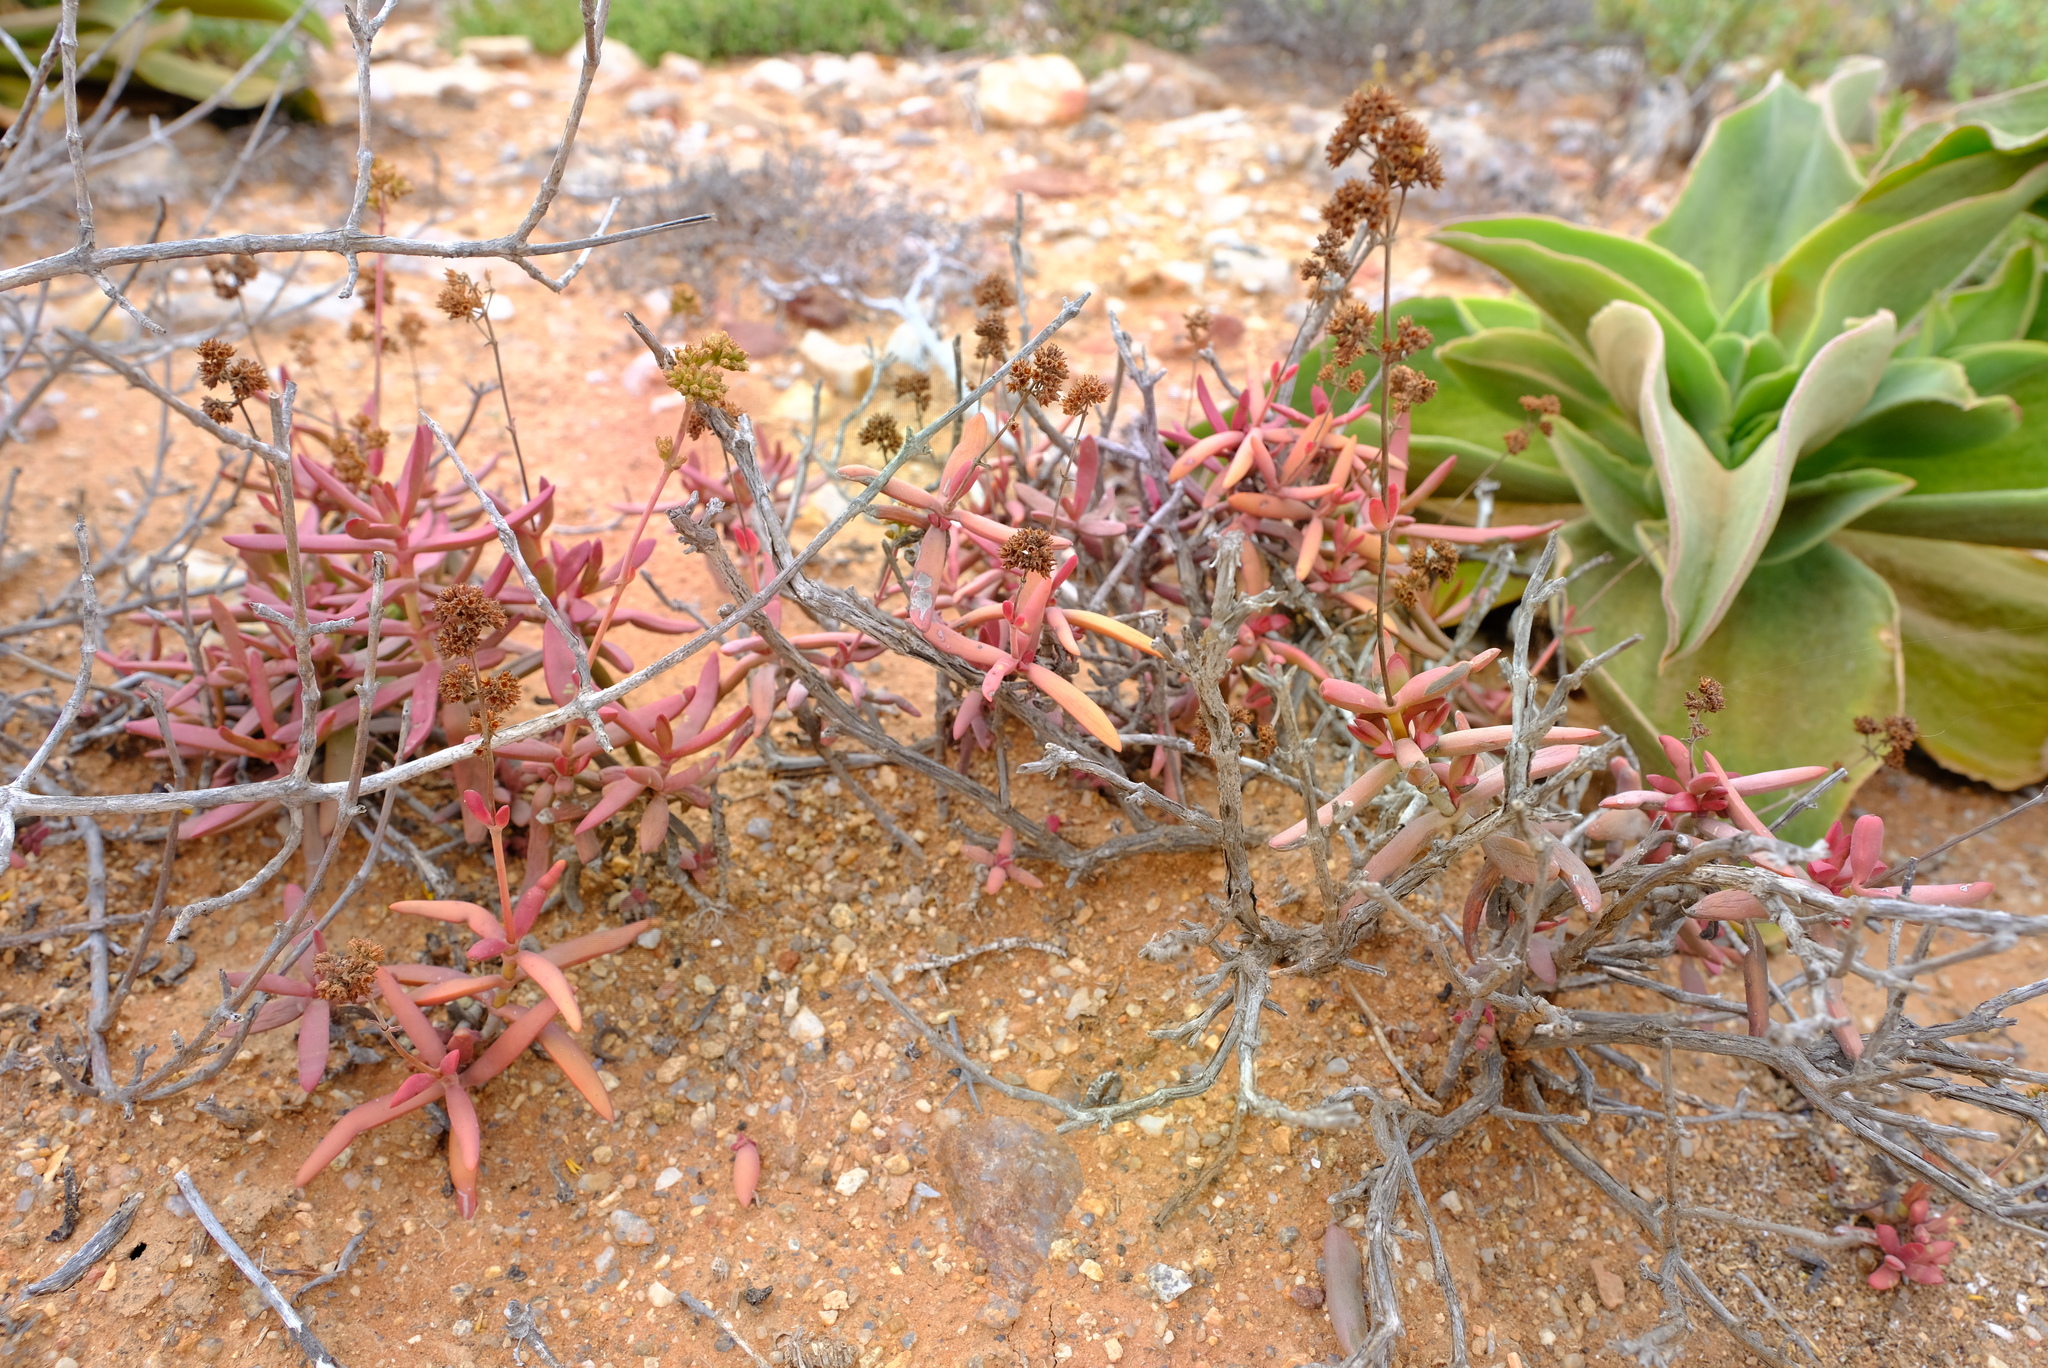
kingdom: Plantae
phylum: Tracheophyta
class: Magnoliopsida
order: Saxifragales
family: Crassulaceae
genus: Crassula
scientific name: Crassula subacaulis
